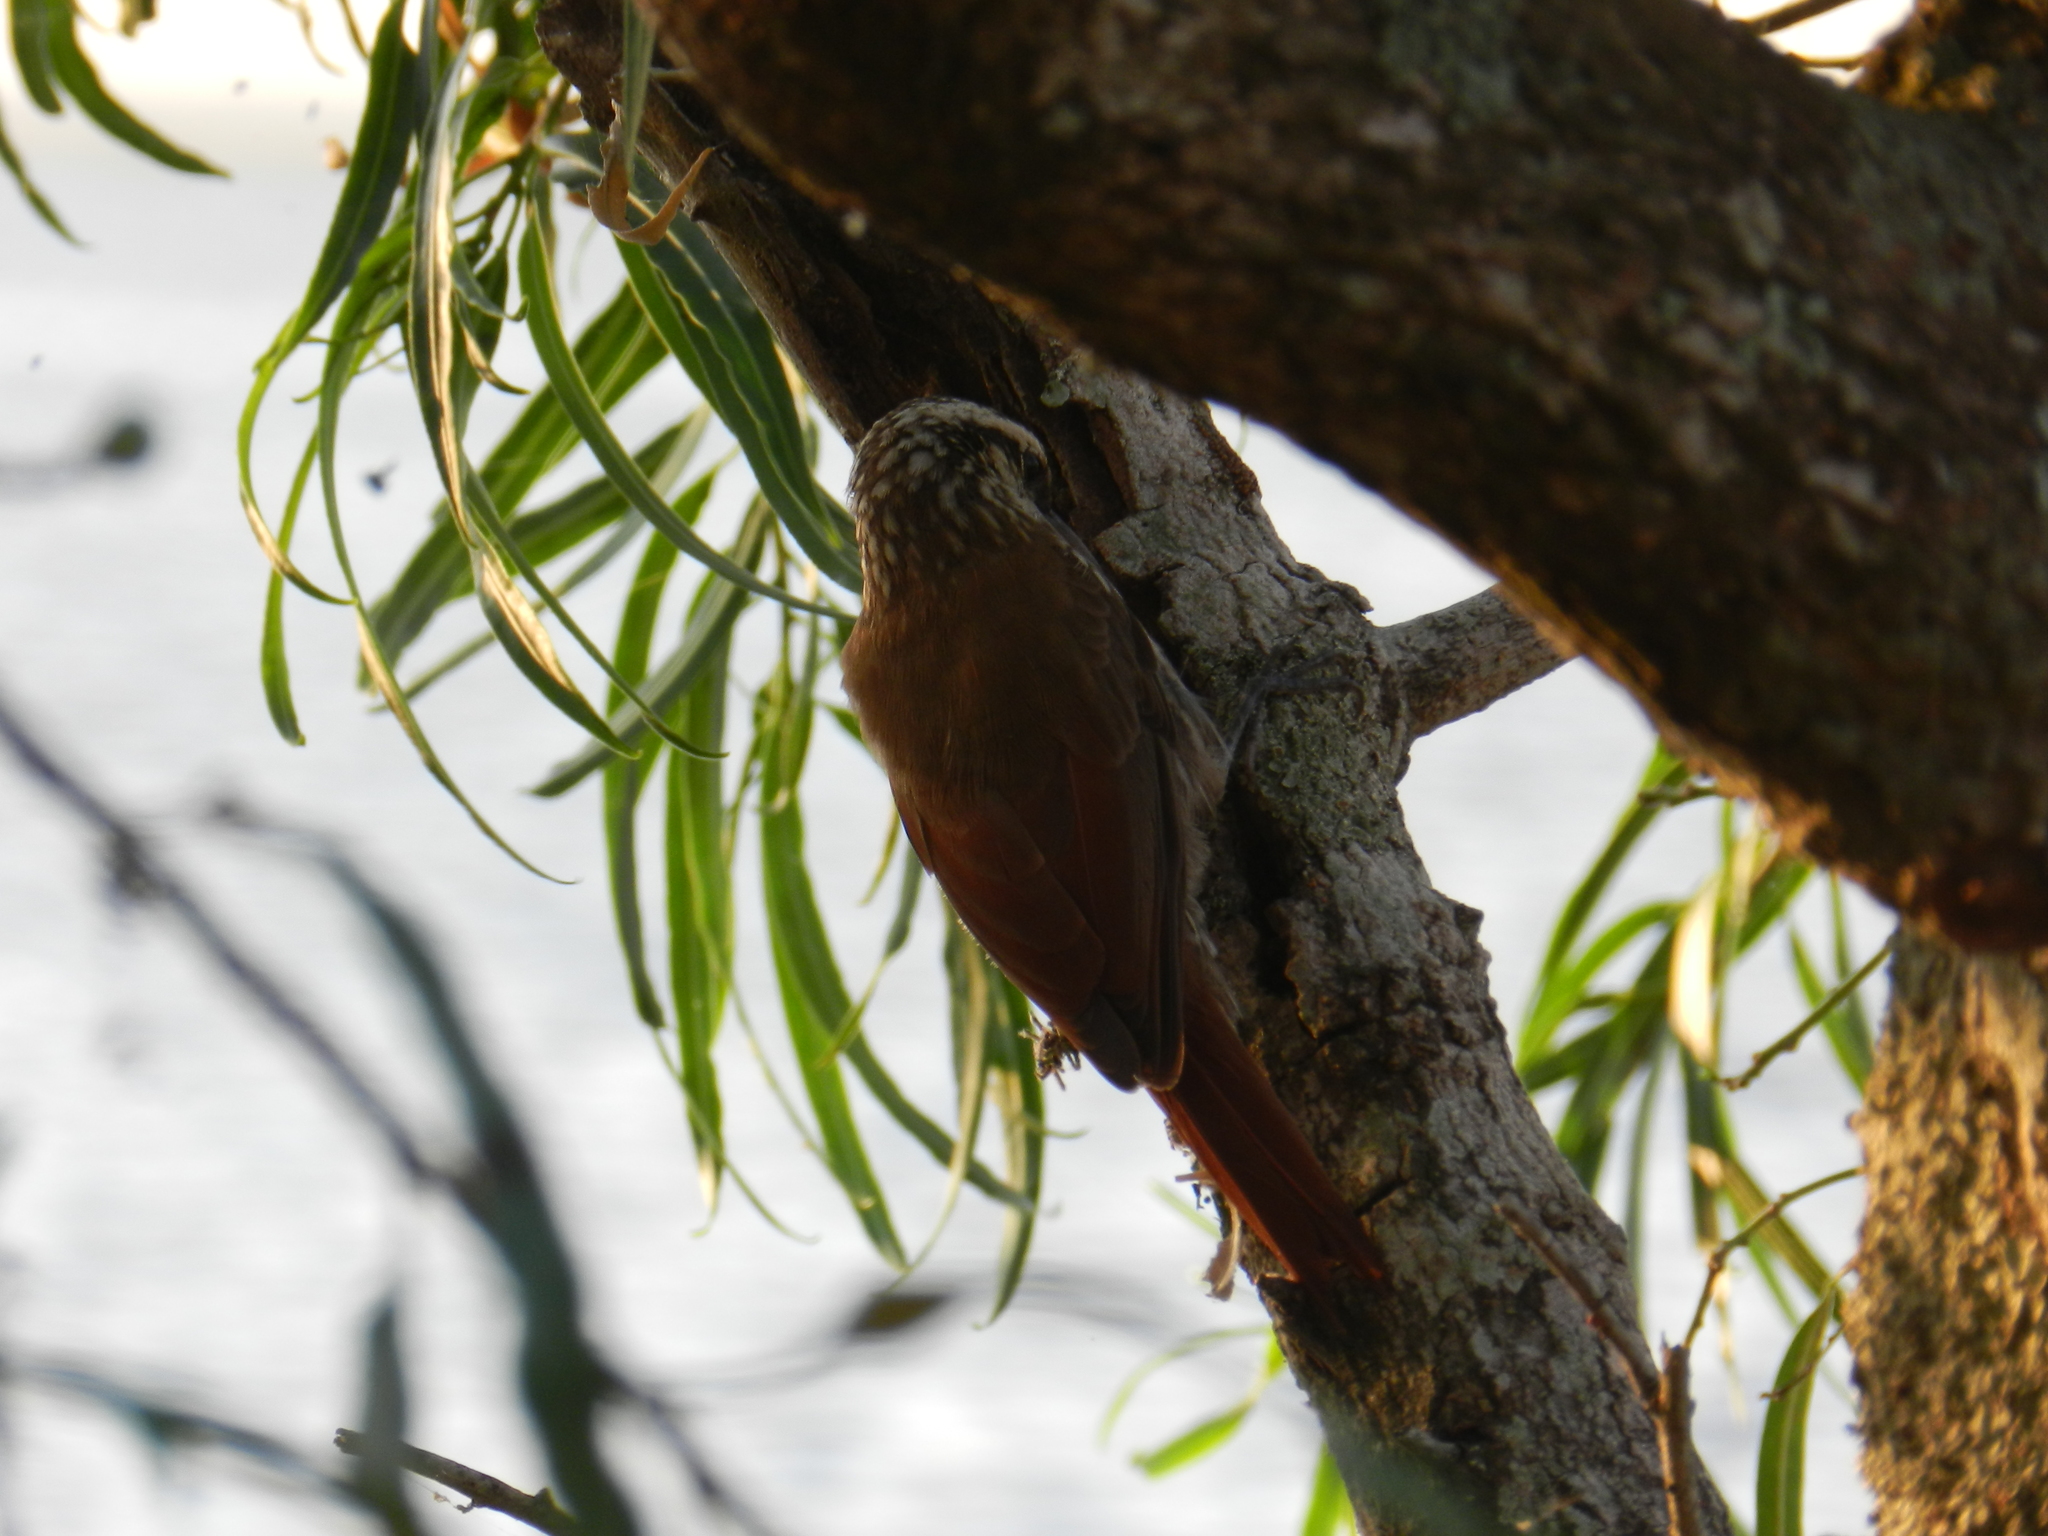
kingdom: Animalia
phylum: Chordata
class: Aves
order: Passeriformes
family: Furnariidae
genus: Lepidocolaptes
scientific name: Lepidocolaptes angustirostris
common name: Narrow-billed woodcreeper
